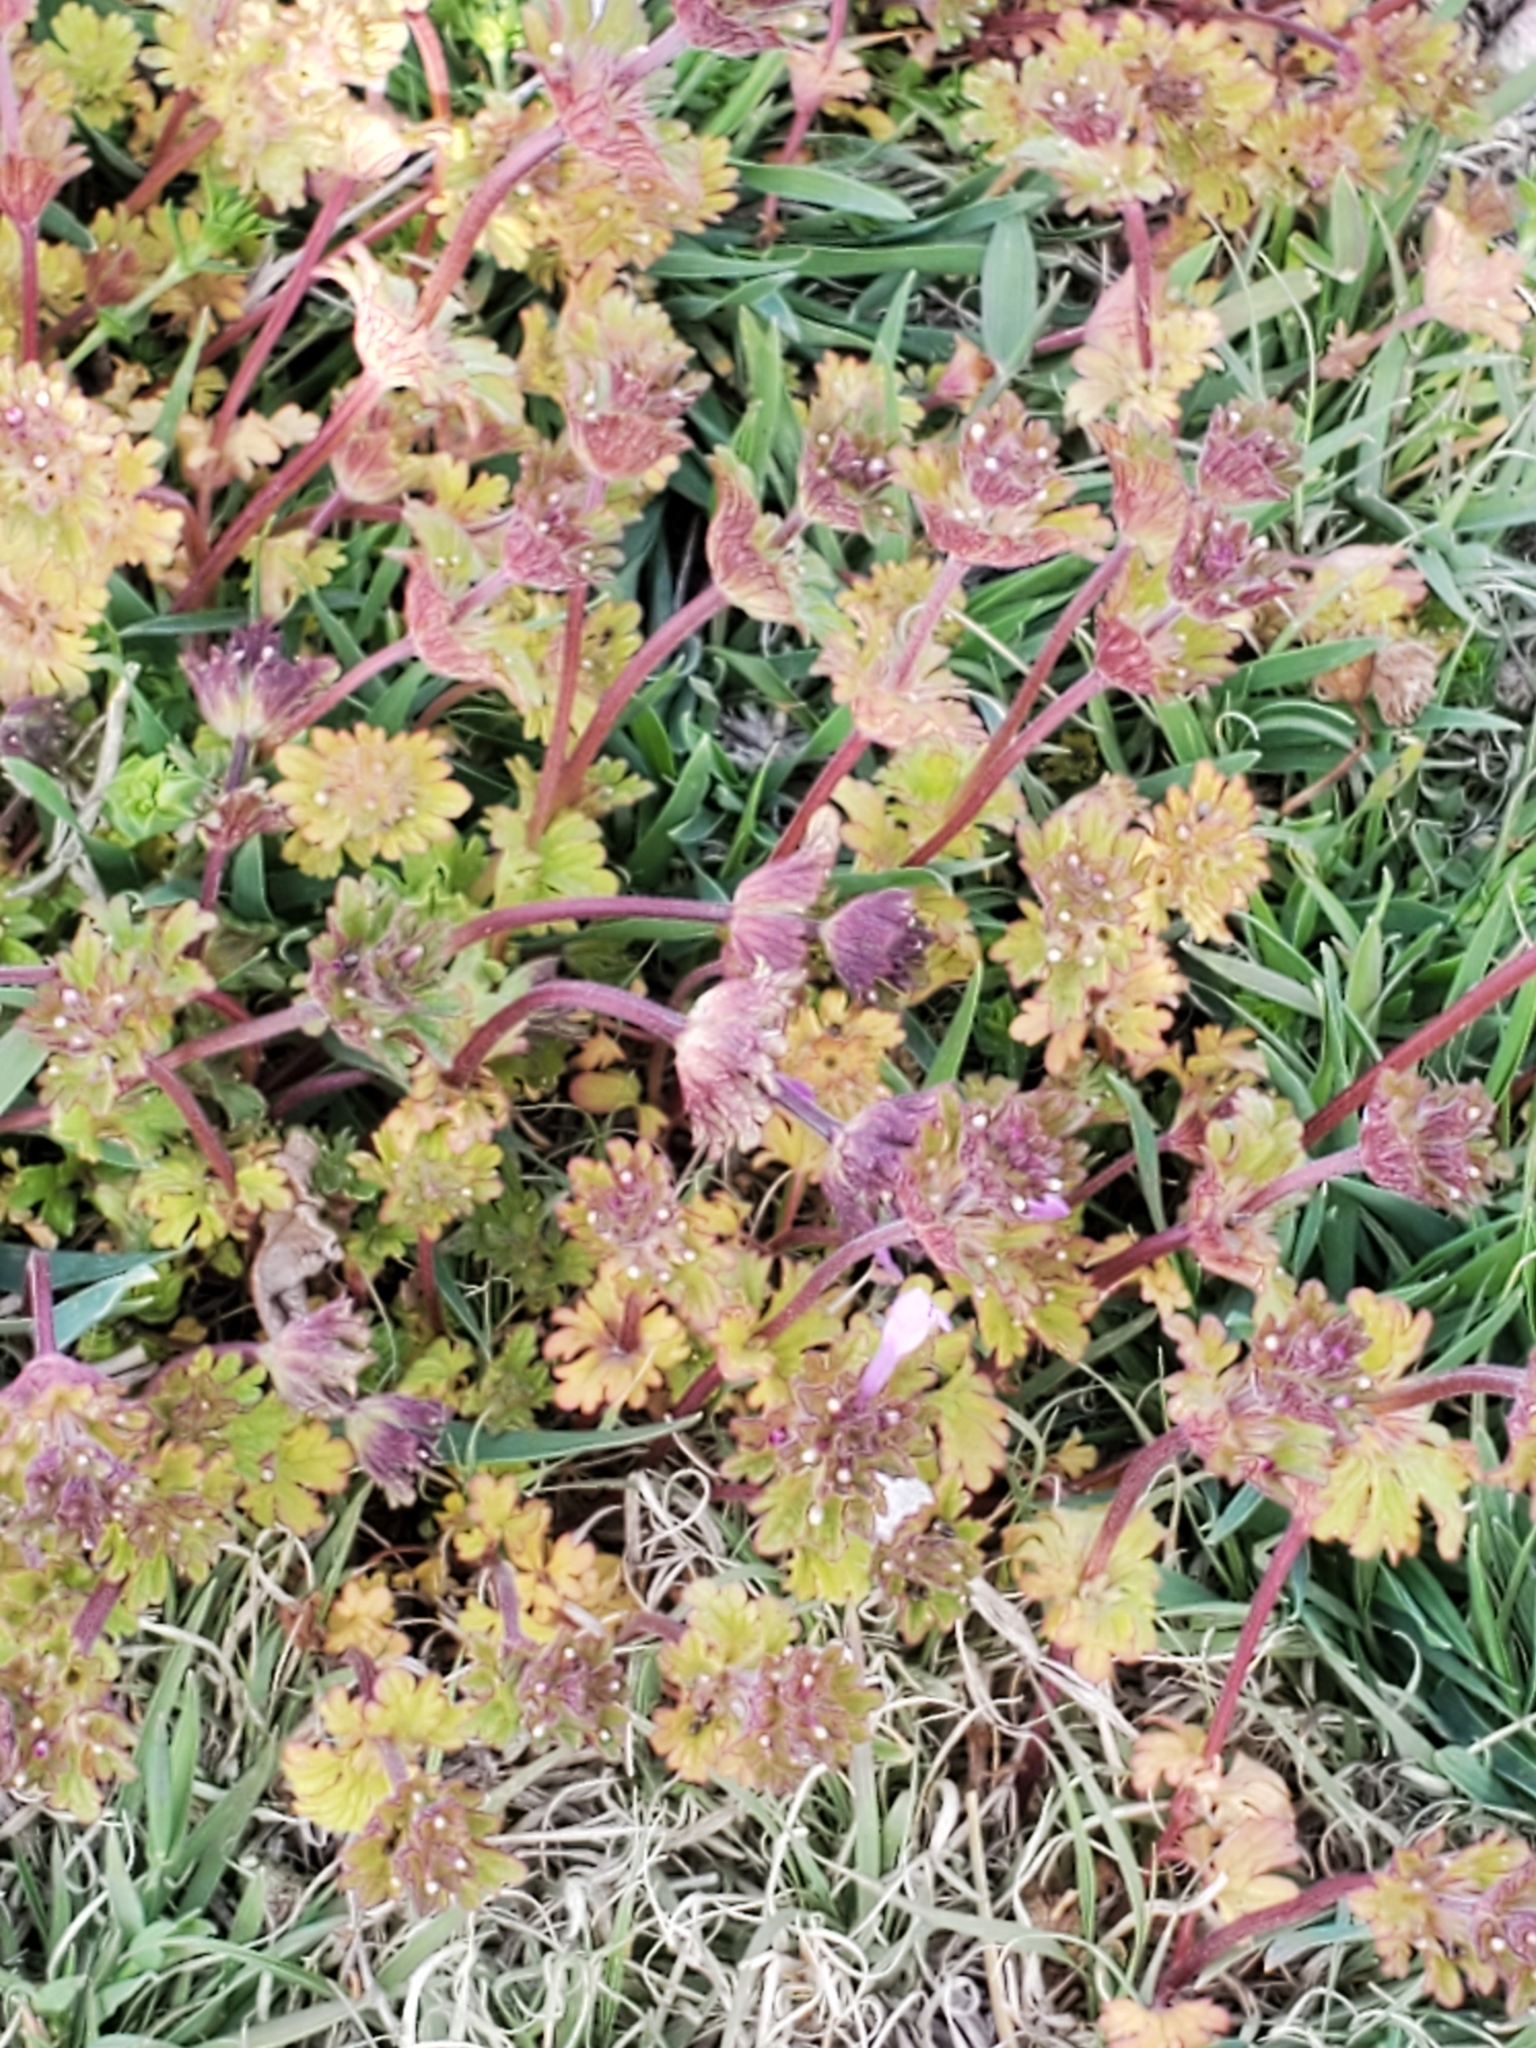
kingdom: Plantae
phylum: Tracheophyta
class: Magnoliopsida
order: Lamiales
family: Lamiaceae
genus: Lamium
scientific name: Lamium amplexicaule
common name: Henbit dead-nettle
